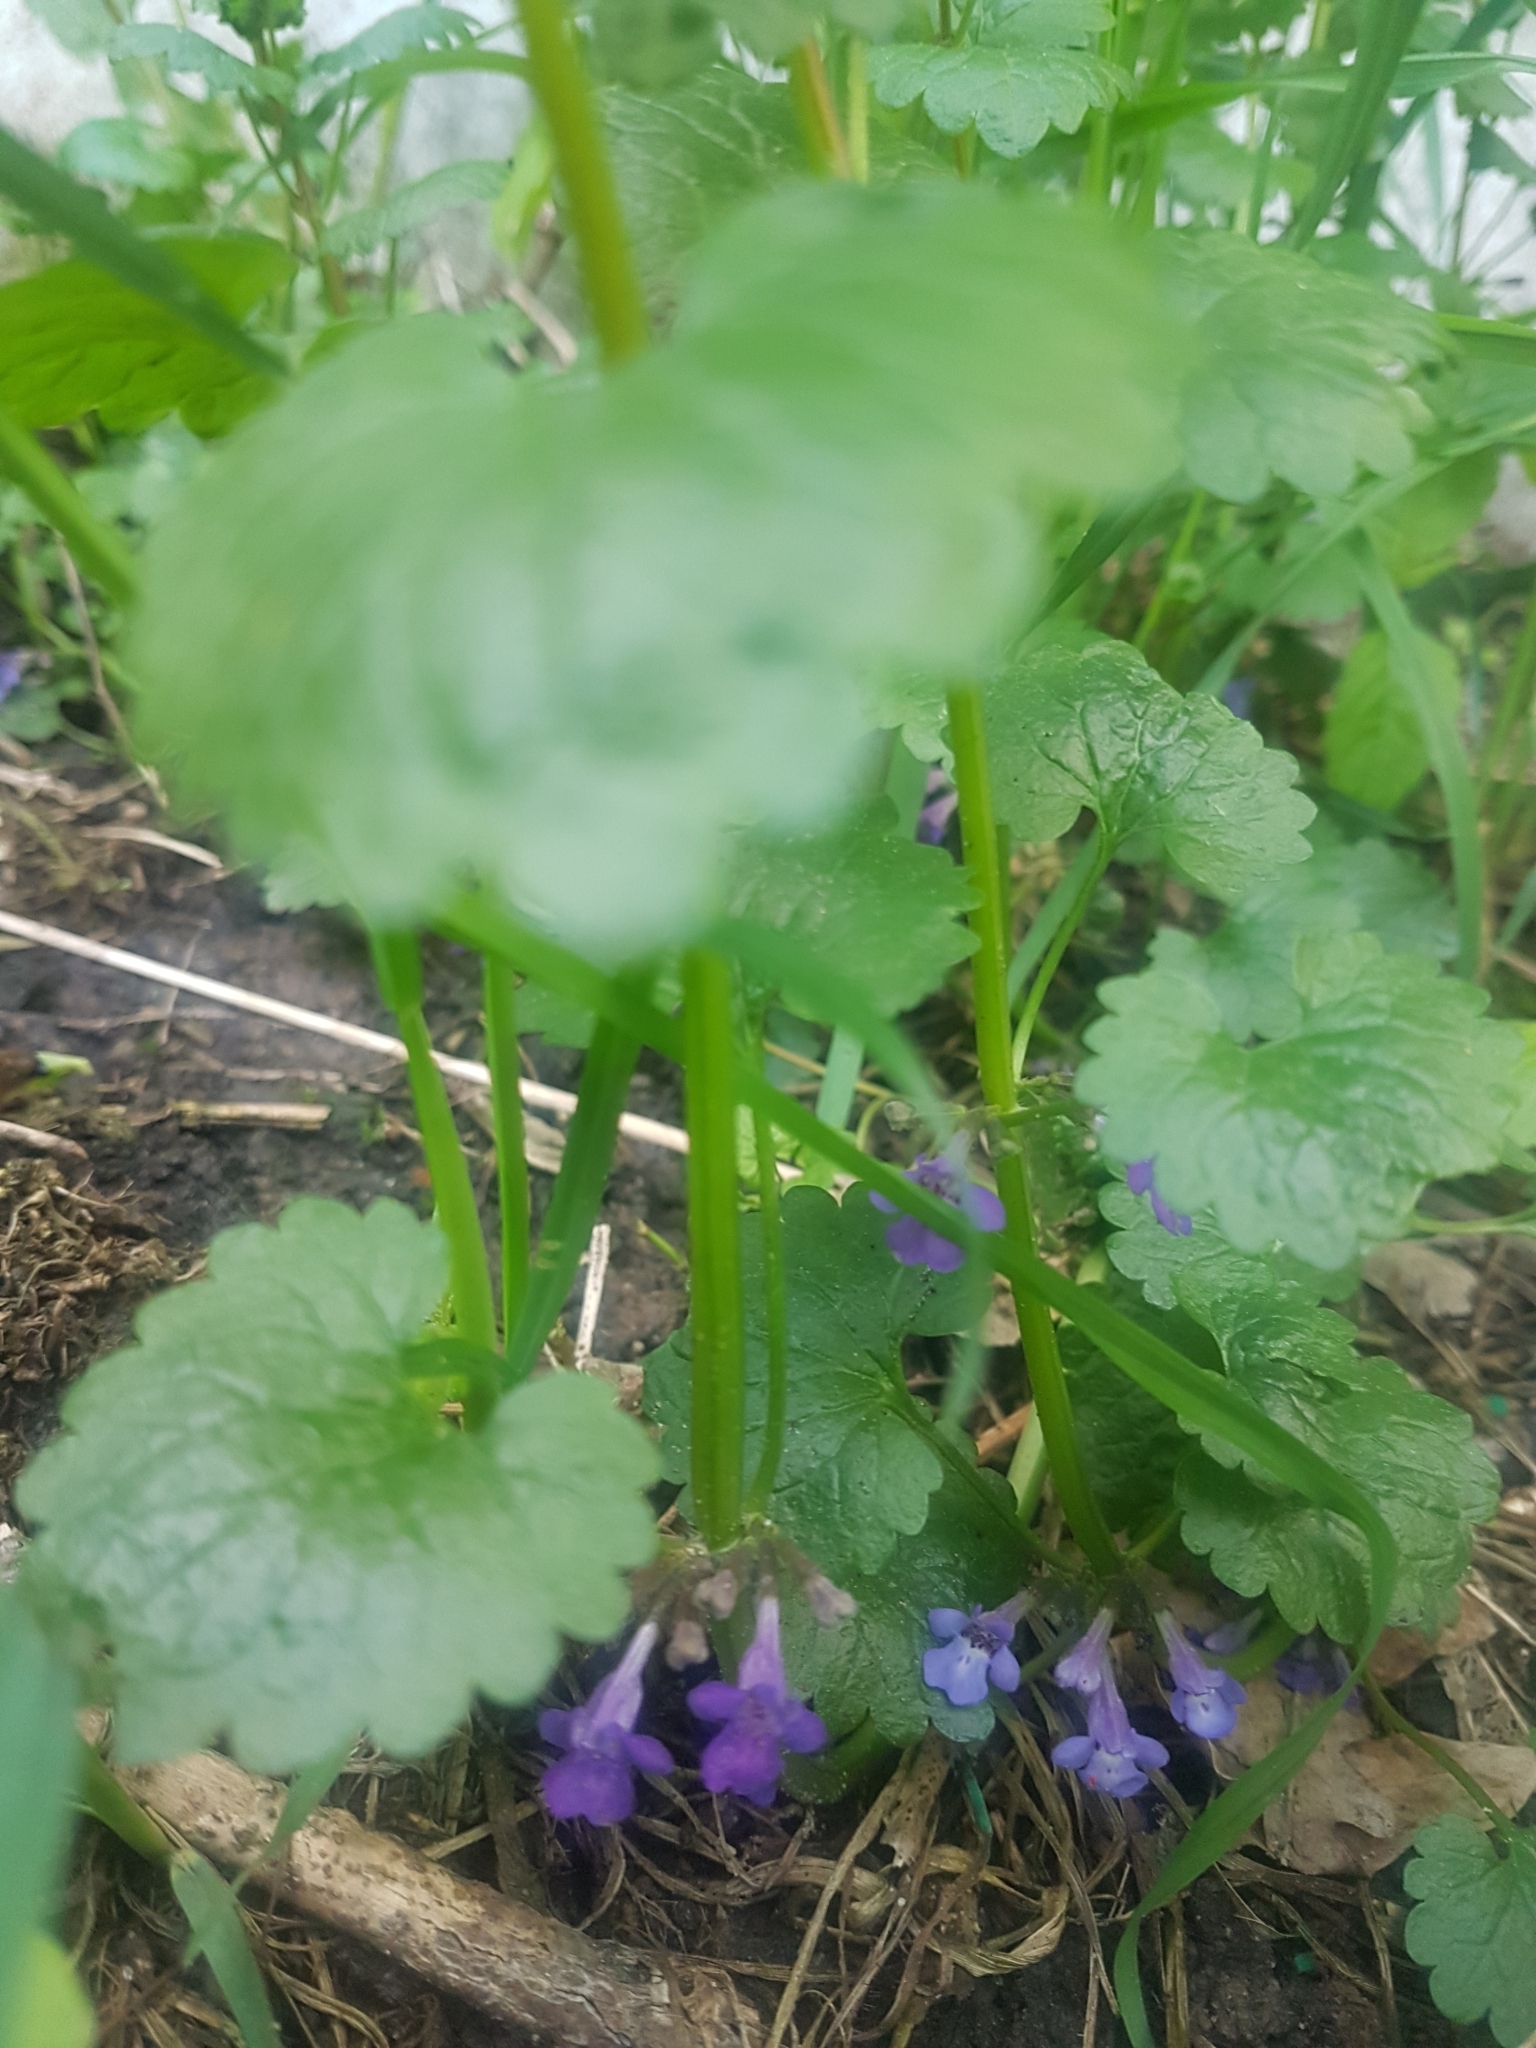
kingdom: Plantae
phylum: Tracheophyta
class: Magnoliopsida
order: Lamiales
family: Lamiaceae
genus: Glechoma
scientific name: Glechoma hederacea
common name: Ground ivy
